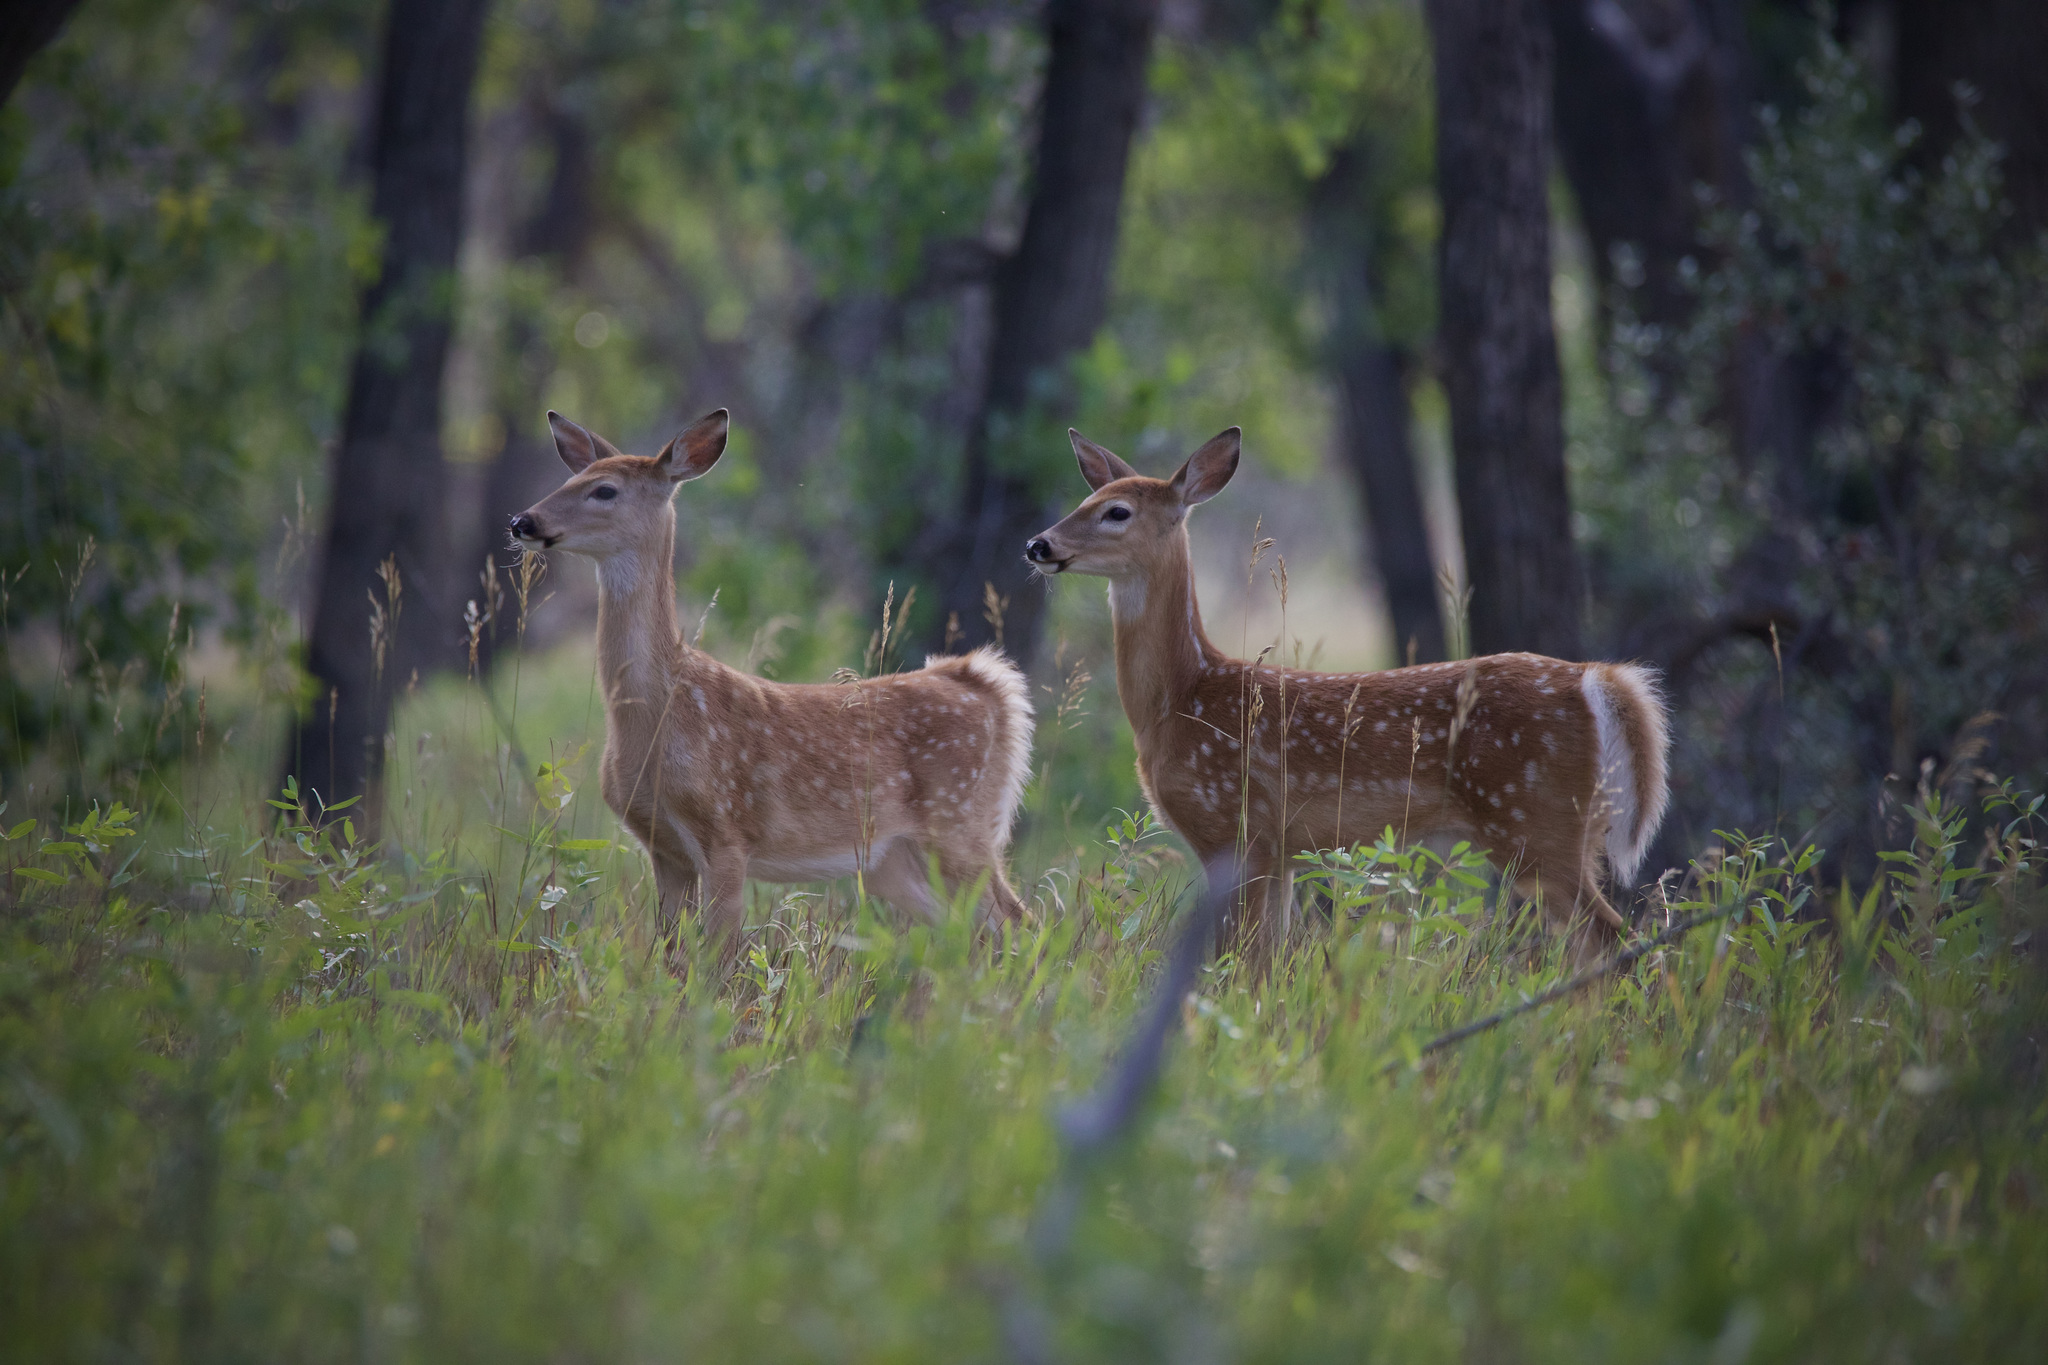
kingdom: Animalia
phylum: Chordata
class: Mammalia
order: Artiodactyla
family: Cervidae
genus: Odocoileus
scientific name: Odocoileus virginianus
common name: White-tailed deer
